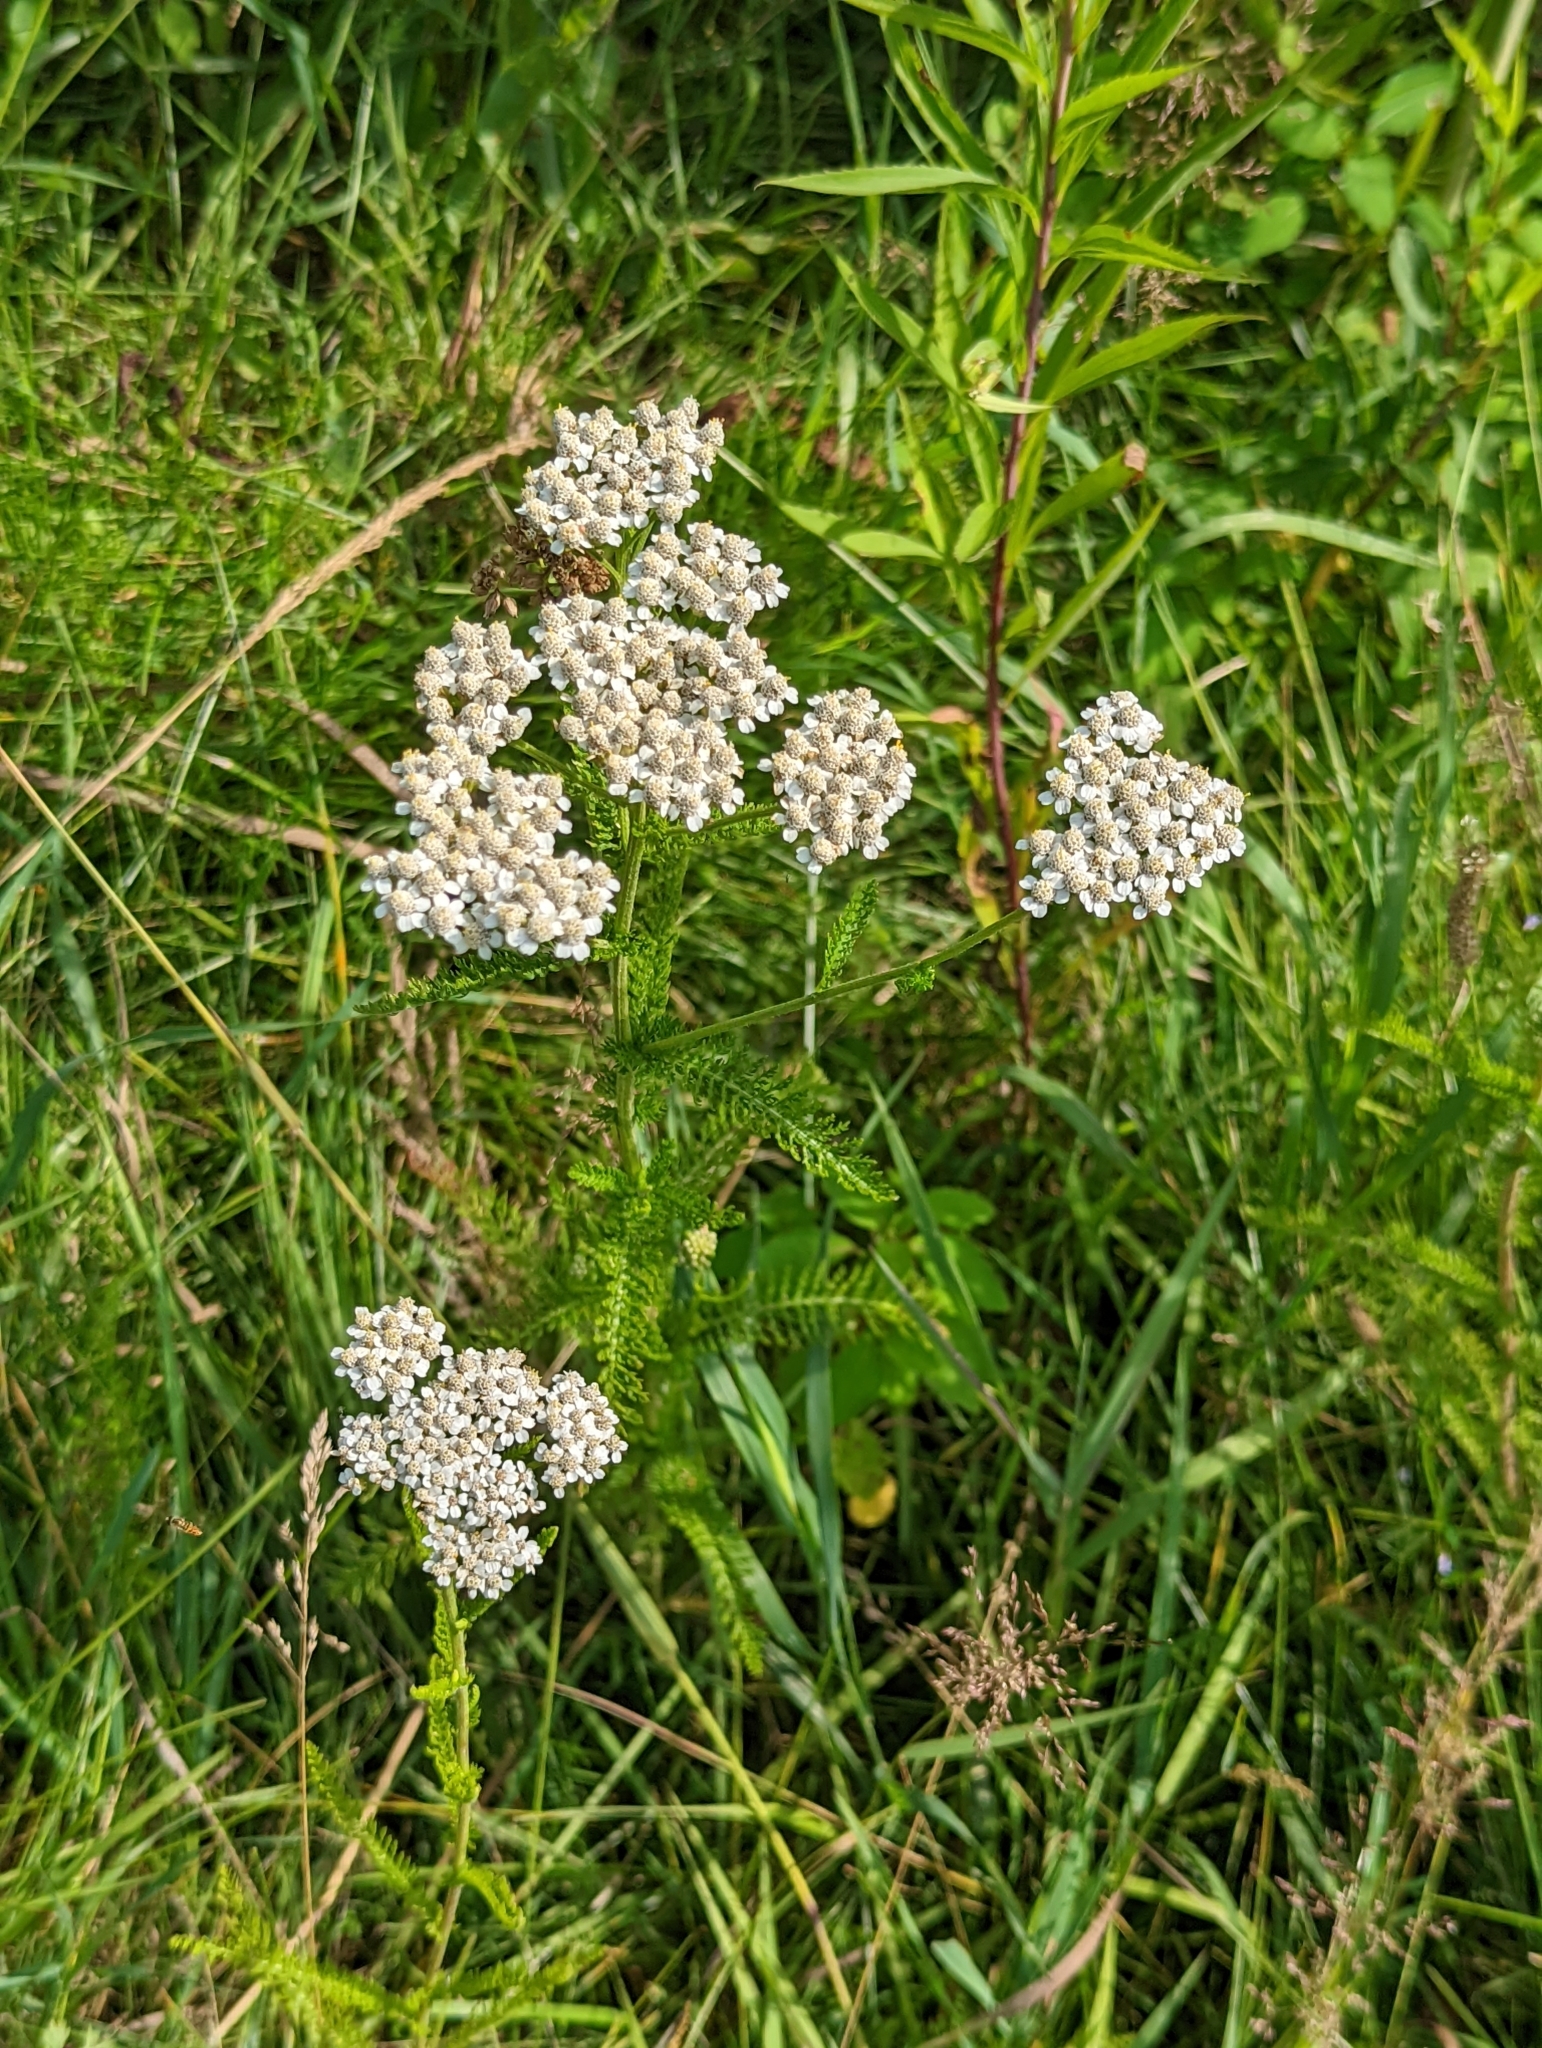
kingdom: Plantae
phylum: Tracheophyta
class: Magnoliopsida
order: Asterales
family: Asteraceae
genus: Achillea
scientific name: Achillea millefolium
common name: Yarrow
